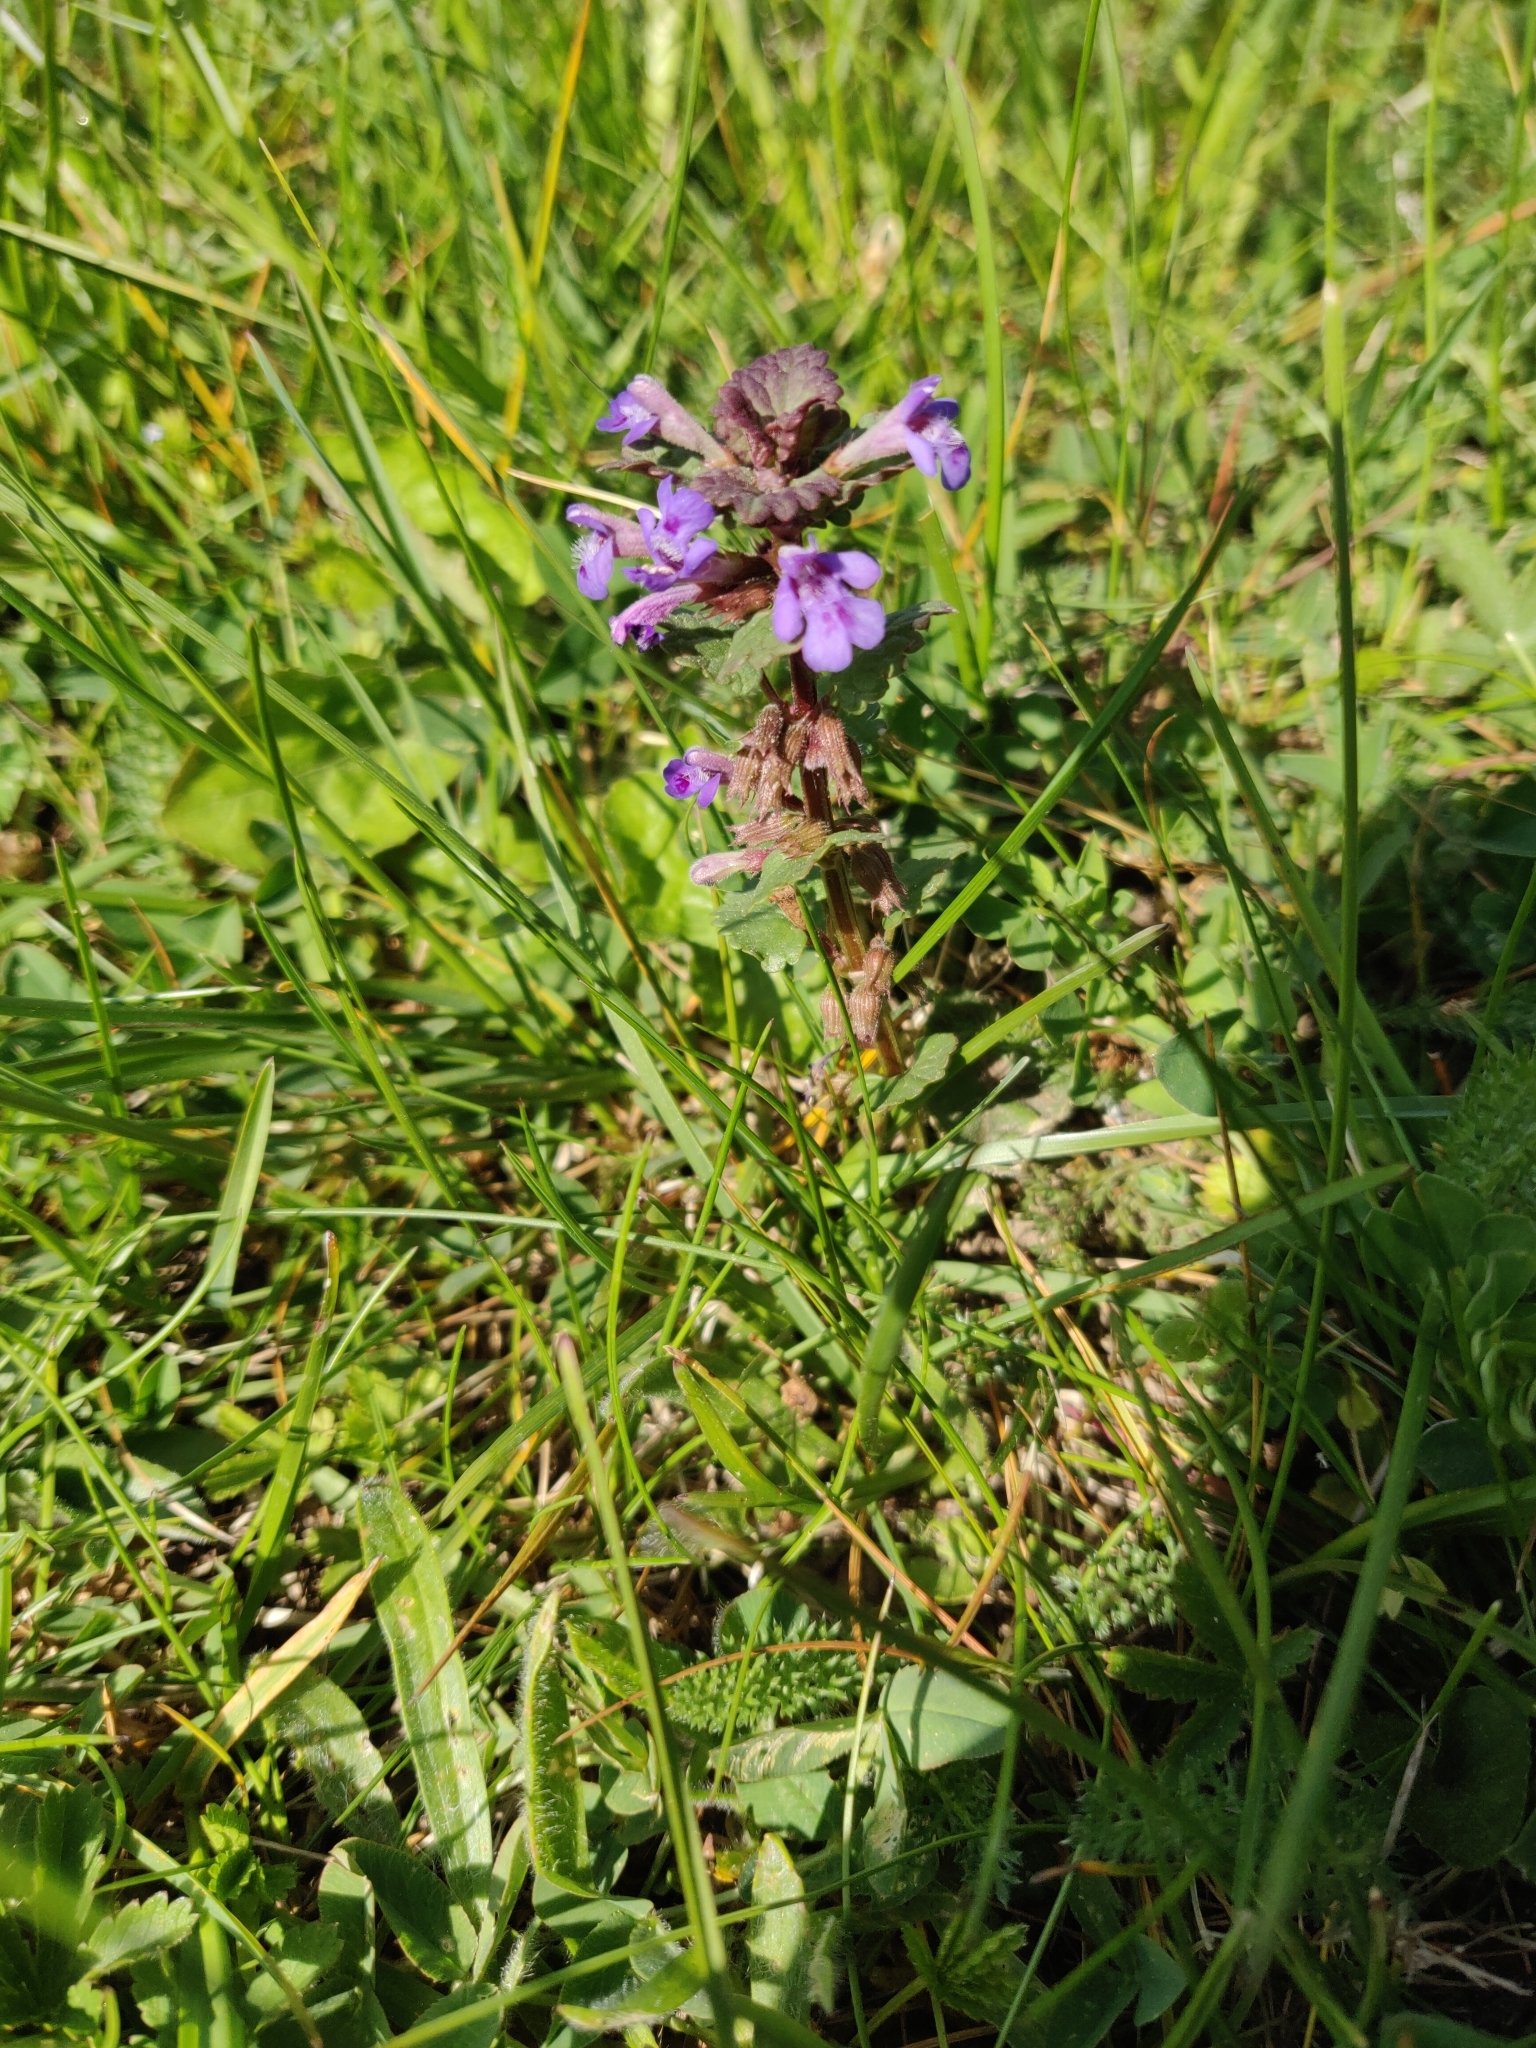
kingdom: Plantae
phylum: Tracheophyta
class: Magnoliopsida
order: Lamiales
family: Lamiaceae
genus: Glechoma
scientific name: Glechoma hederacea
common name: Ground ivy
